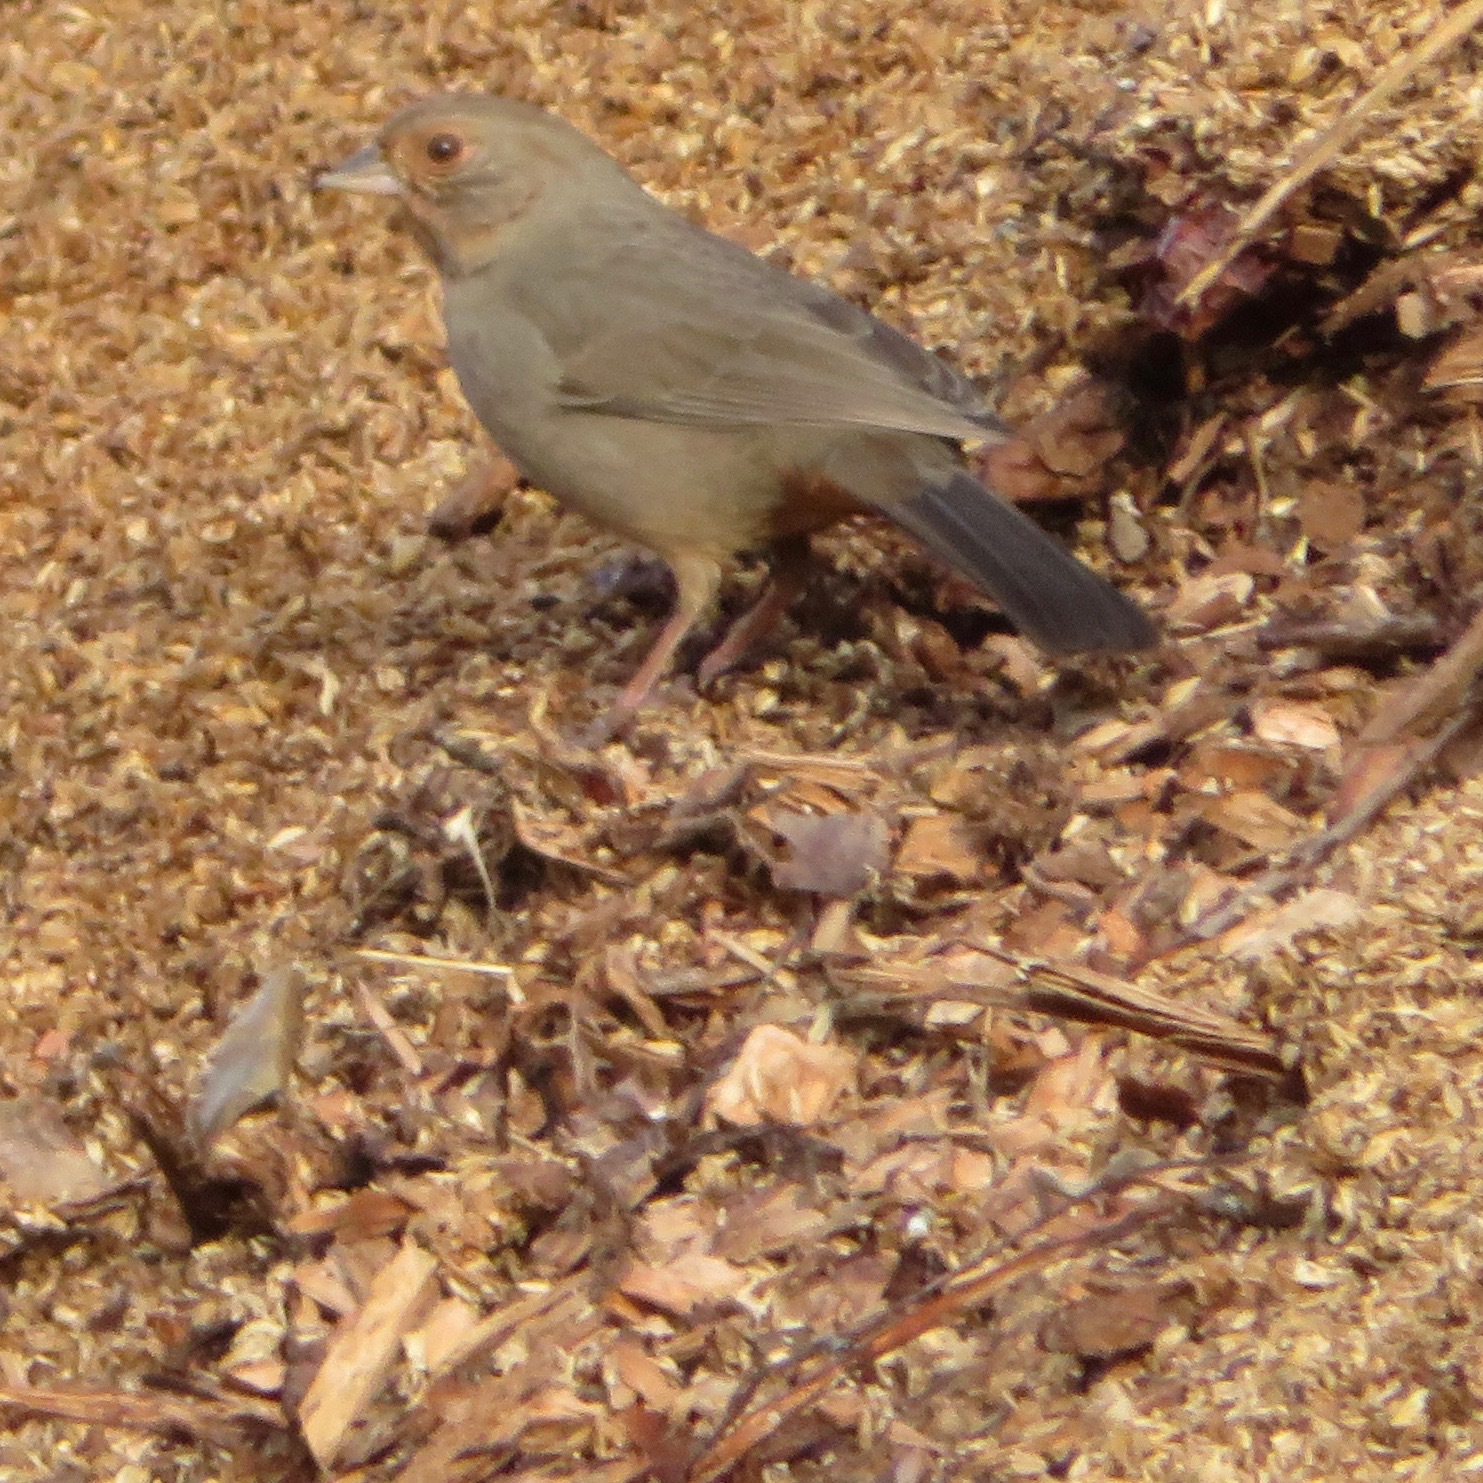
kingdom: Animalia
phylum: Chordata
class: Aves
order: Passeriformes
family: Passerellidae
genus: Melozone
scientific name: Melozone crissalis
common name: California towhee
